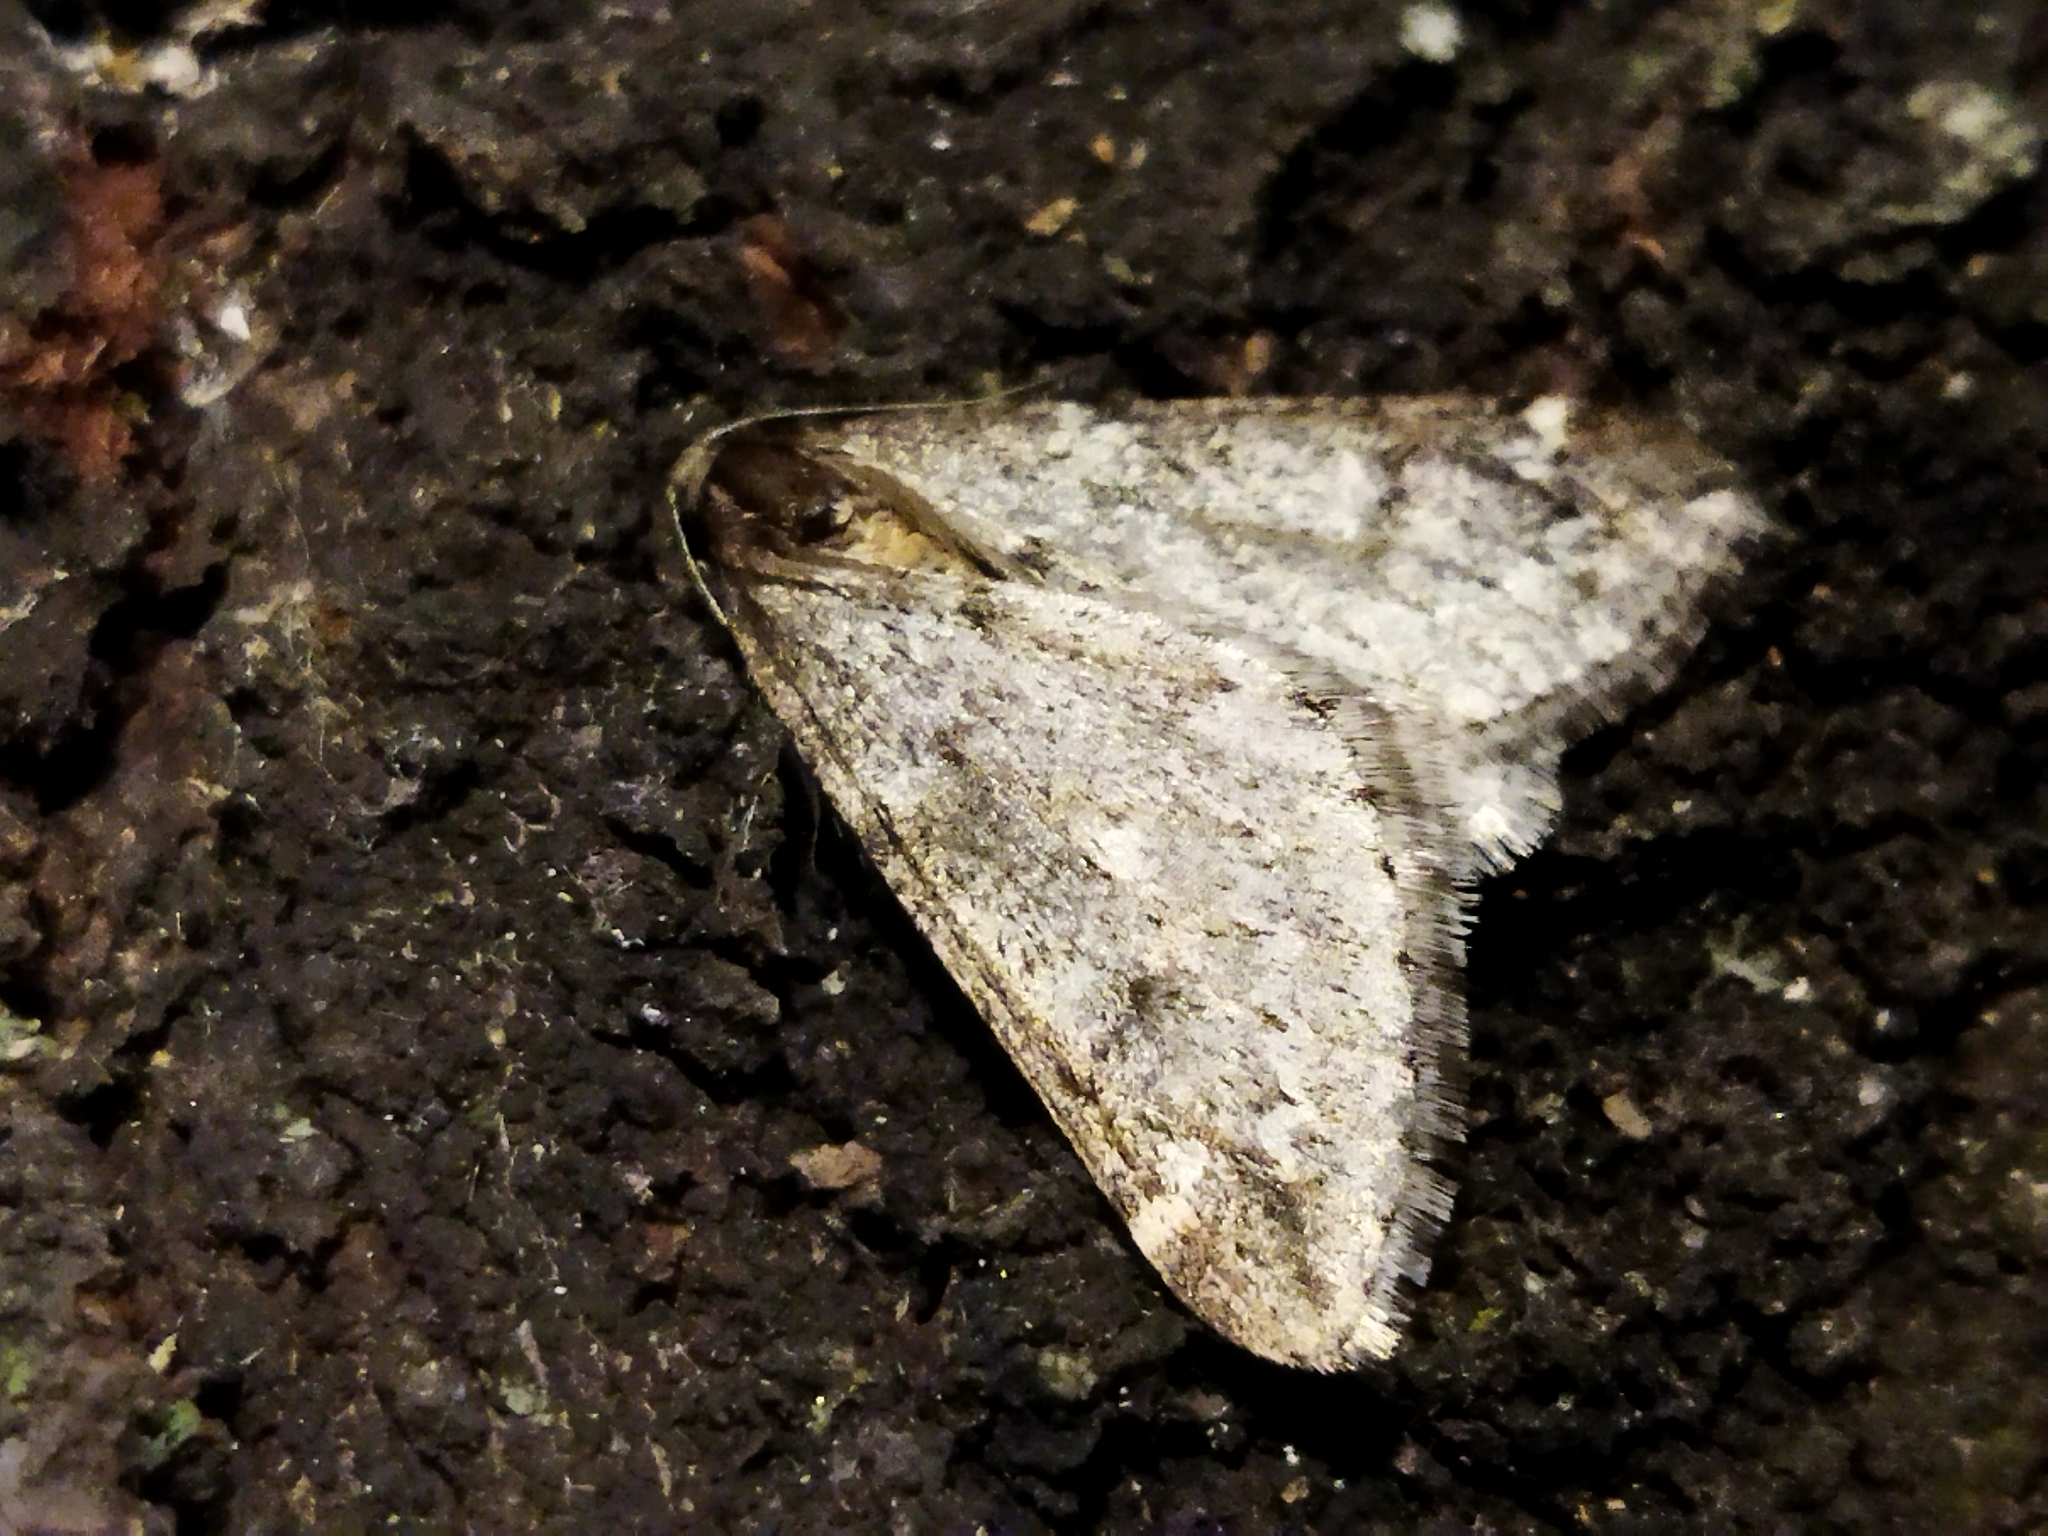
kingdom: Animalia
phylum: Arthropoda
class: Insecta
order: Lepidoptera
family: Geometridae
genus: Alsophila
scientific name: Alsophila aescularia
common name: March moth
